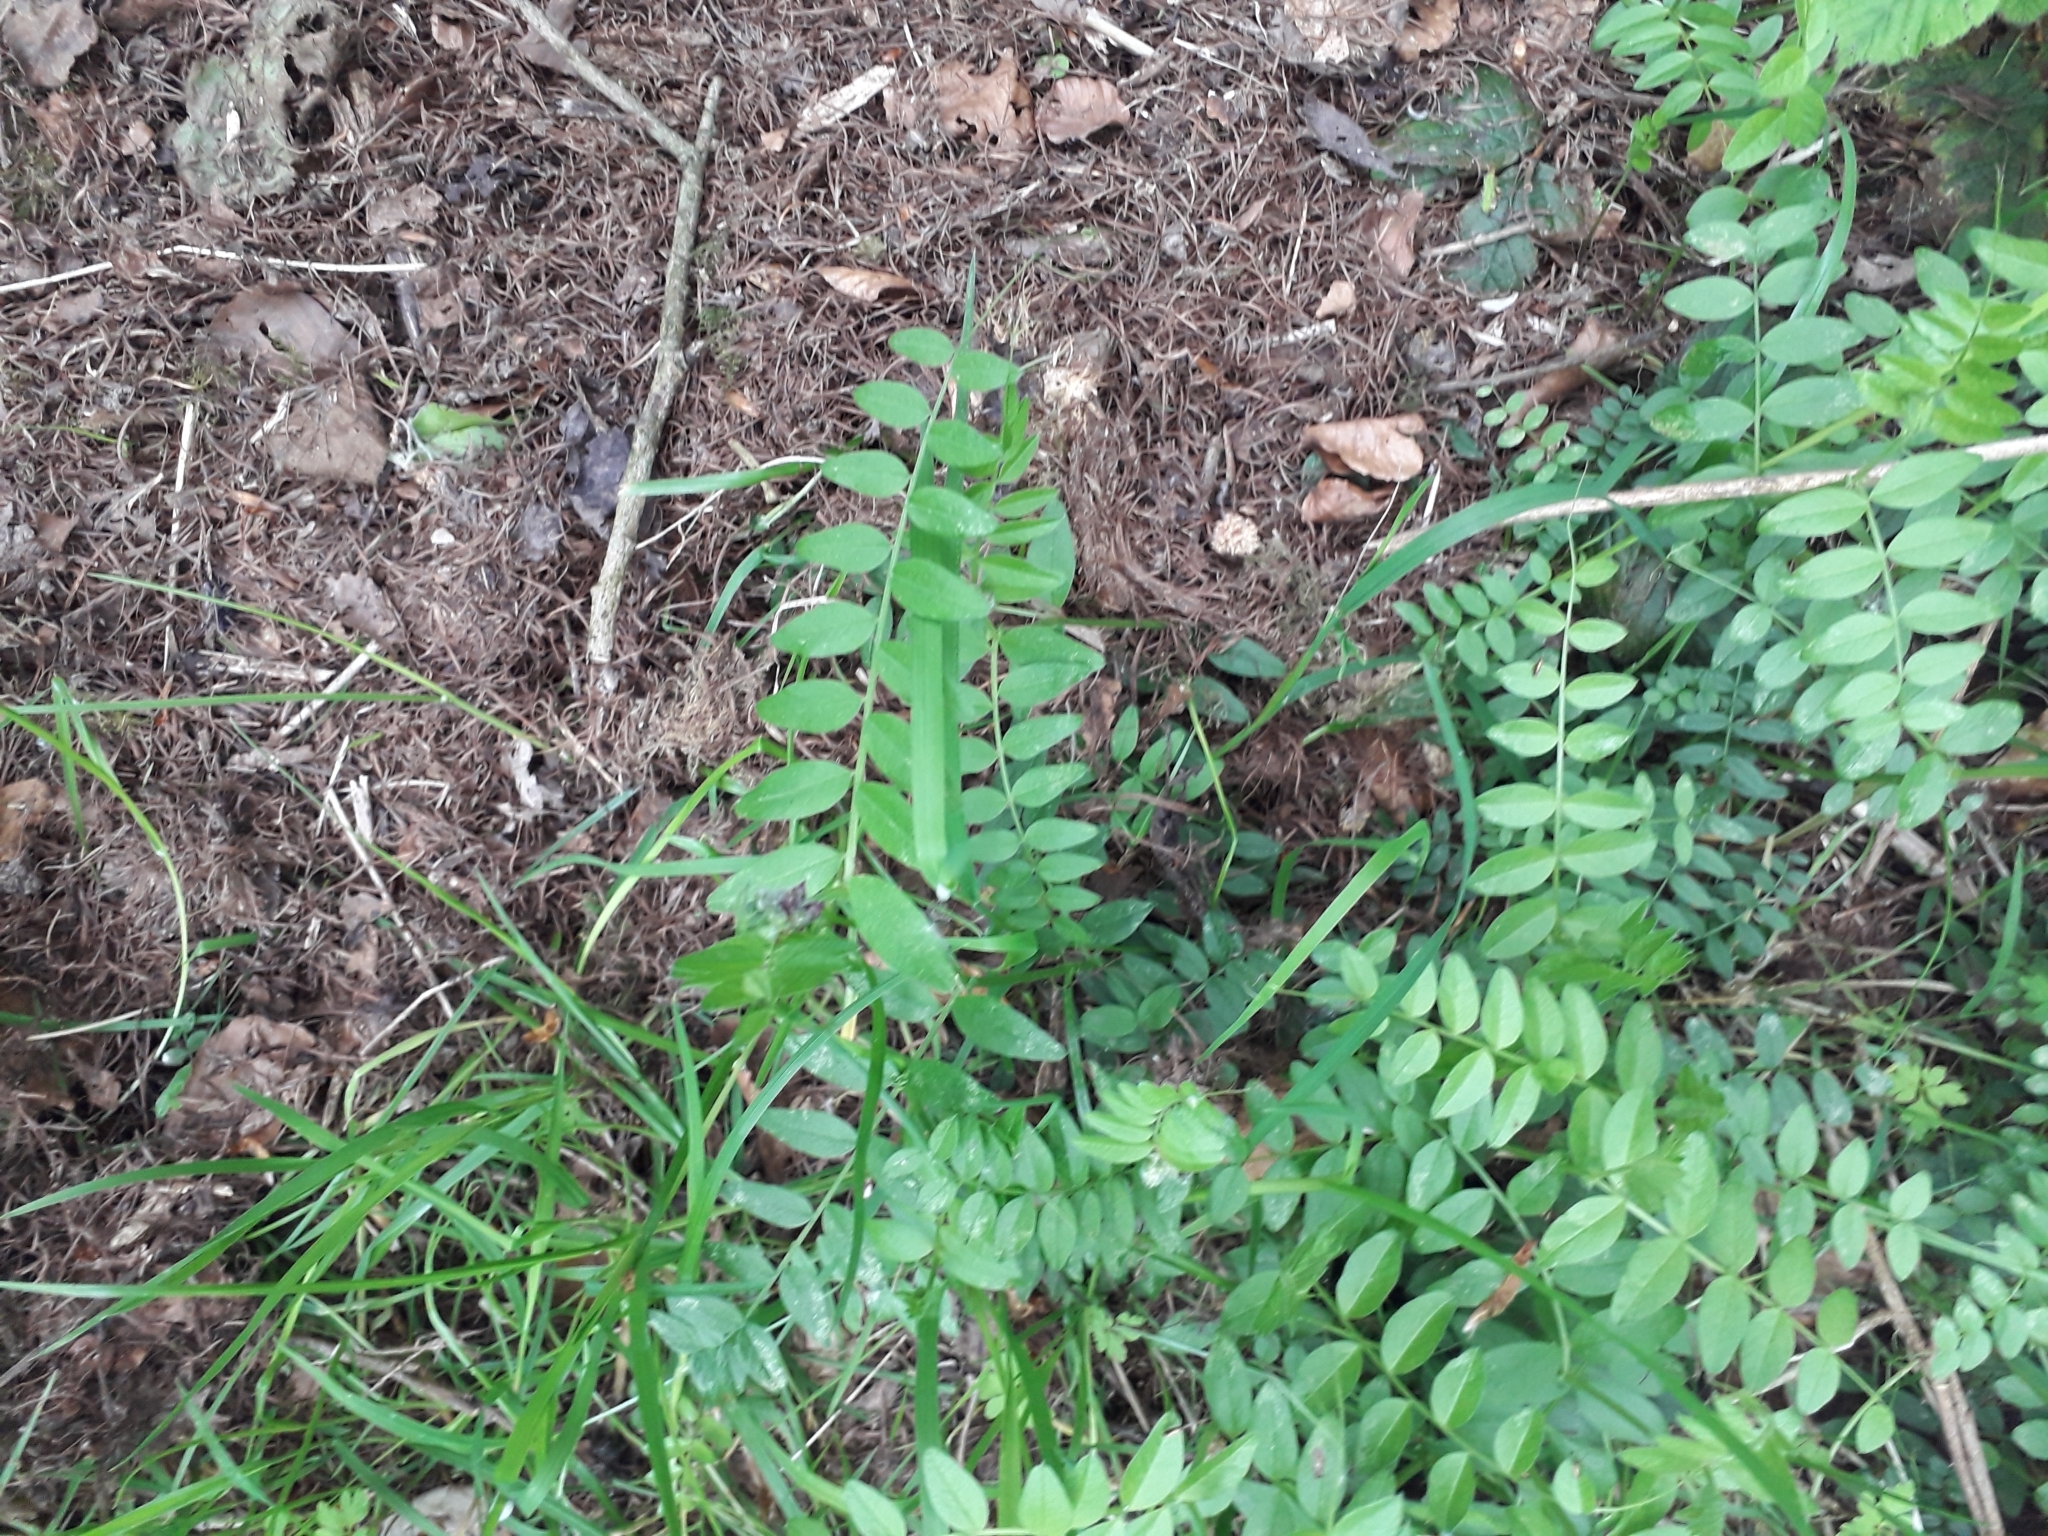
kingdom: Plantae
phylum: Tracheophyta
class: Magnoliopsida
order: Fabales
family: Fabaceae
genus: Vicia
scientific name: Vicia sepium
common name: Bush vetch
